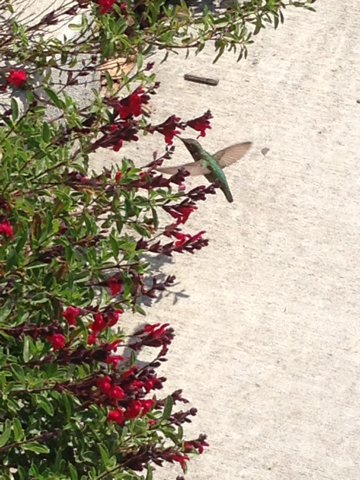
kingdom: Animalia
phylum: Chordata
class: Aves
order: Apodiformes
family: Trochilidae
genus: Calypte
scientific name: Calypte anna
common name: Anna's hummingbird
